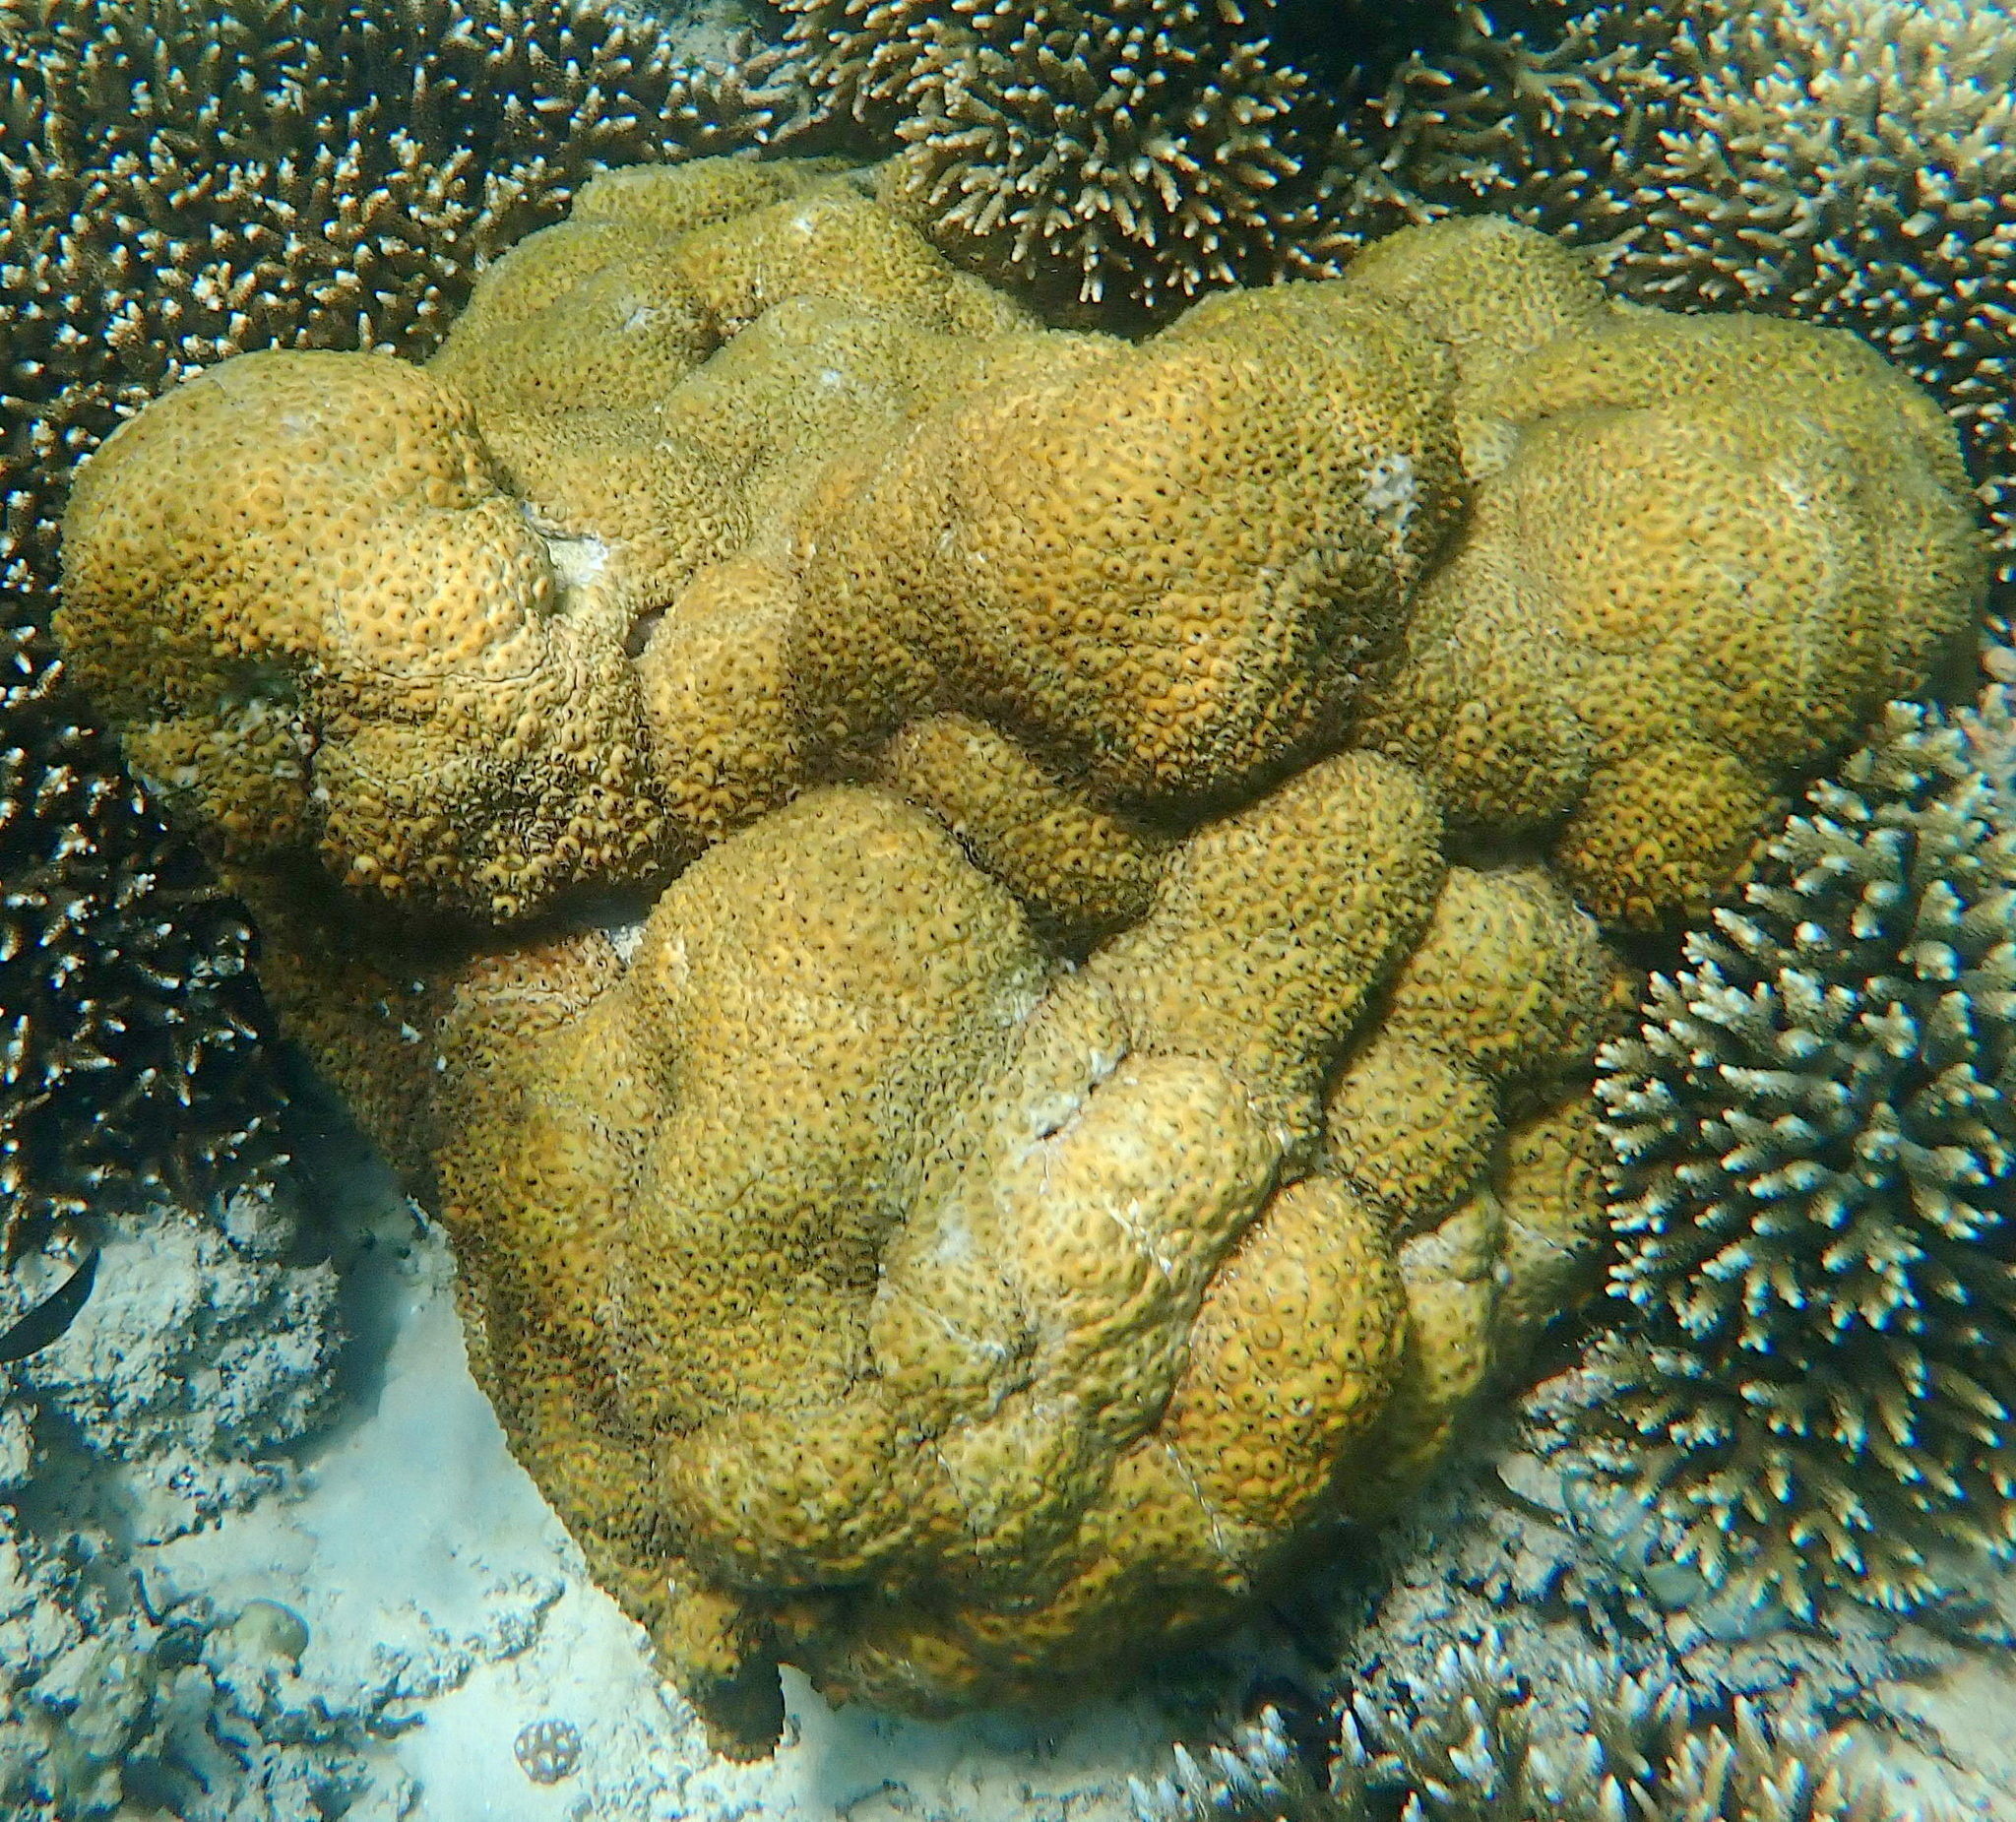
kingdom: Animalia
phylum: Cnidaria
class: Anthozoa
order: Zoantharia
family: Sphenopidae
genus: Palythoa
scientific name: Palythoa tuberculosa
